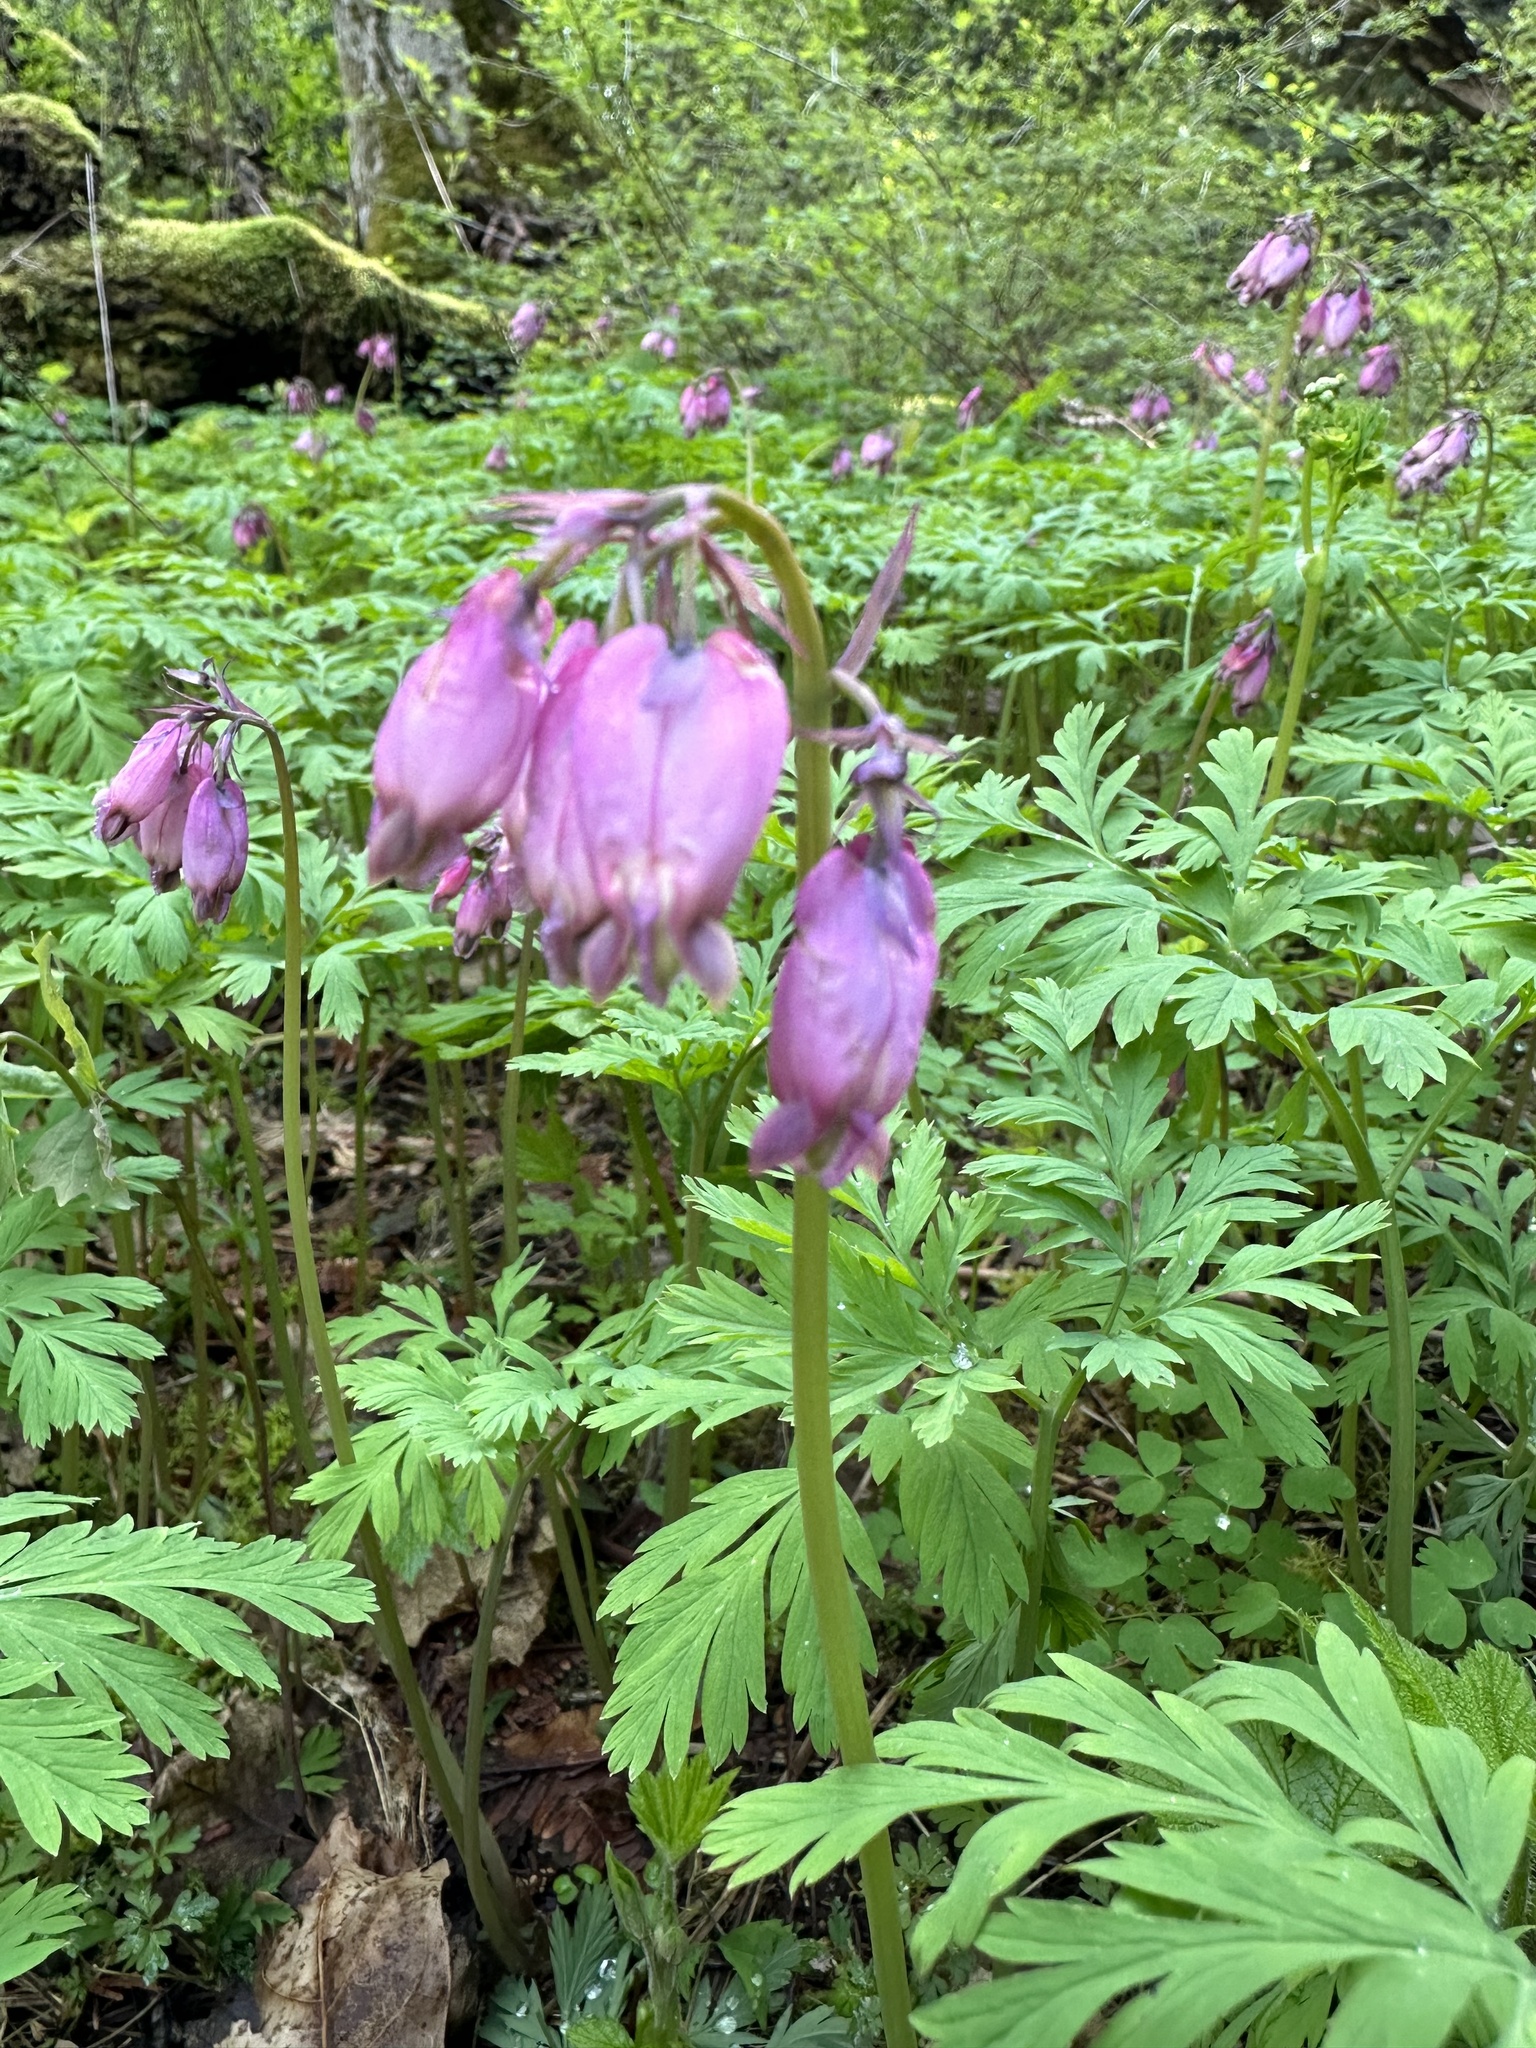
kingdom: Plantae
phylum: Tracheophyta
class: Magnoliopsida
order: Ranunculales
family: Papaveraceae
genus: Dicentra
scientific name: Dicentra formosa
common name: Bleeding-heart
